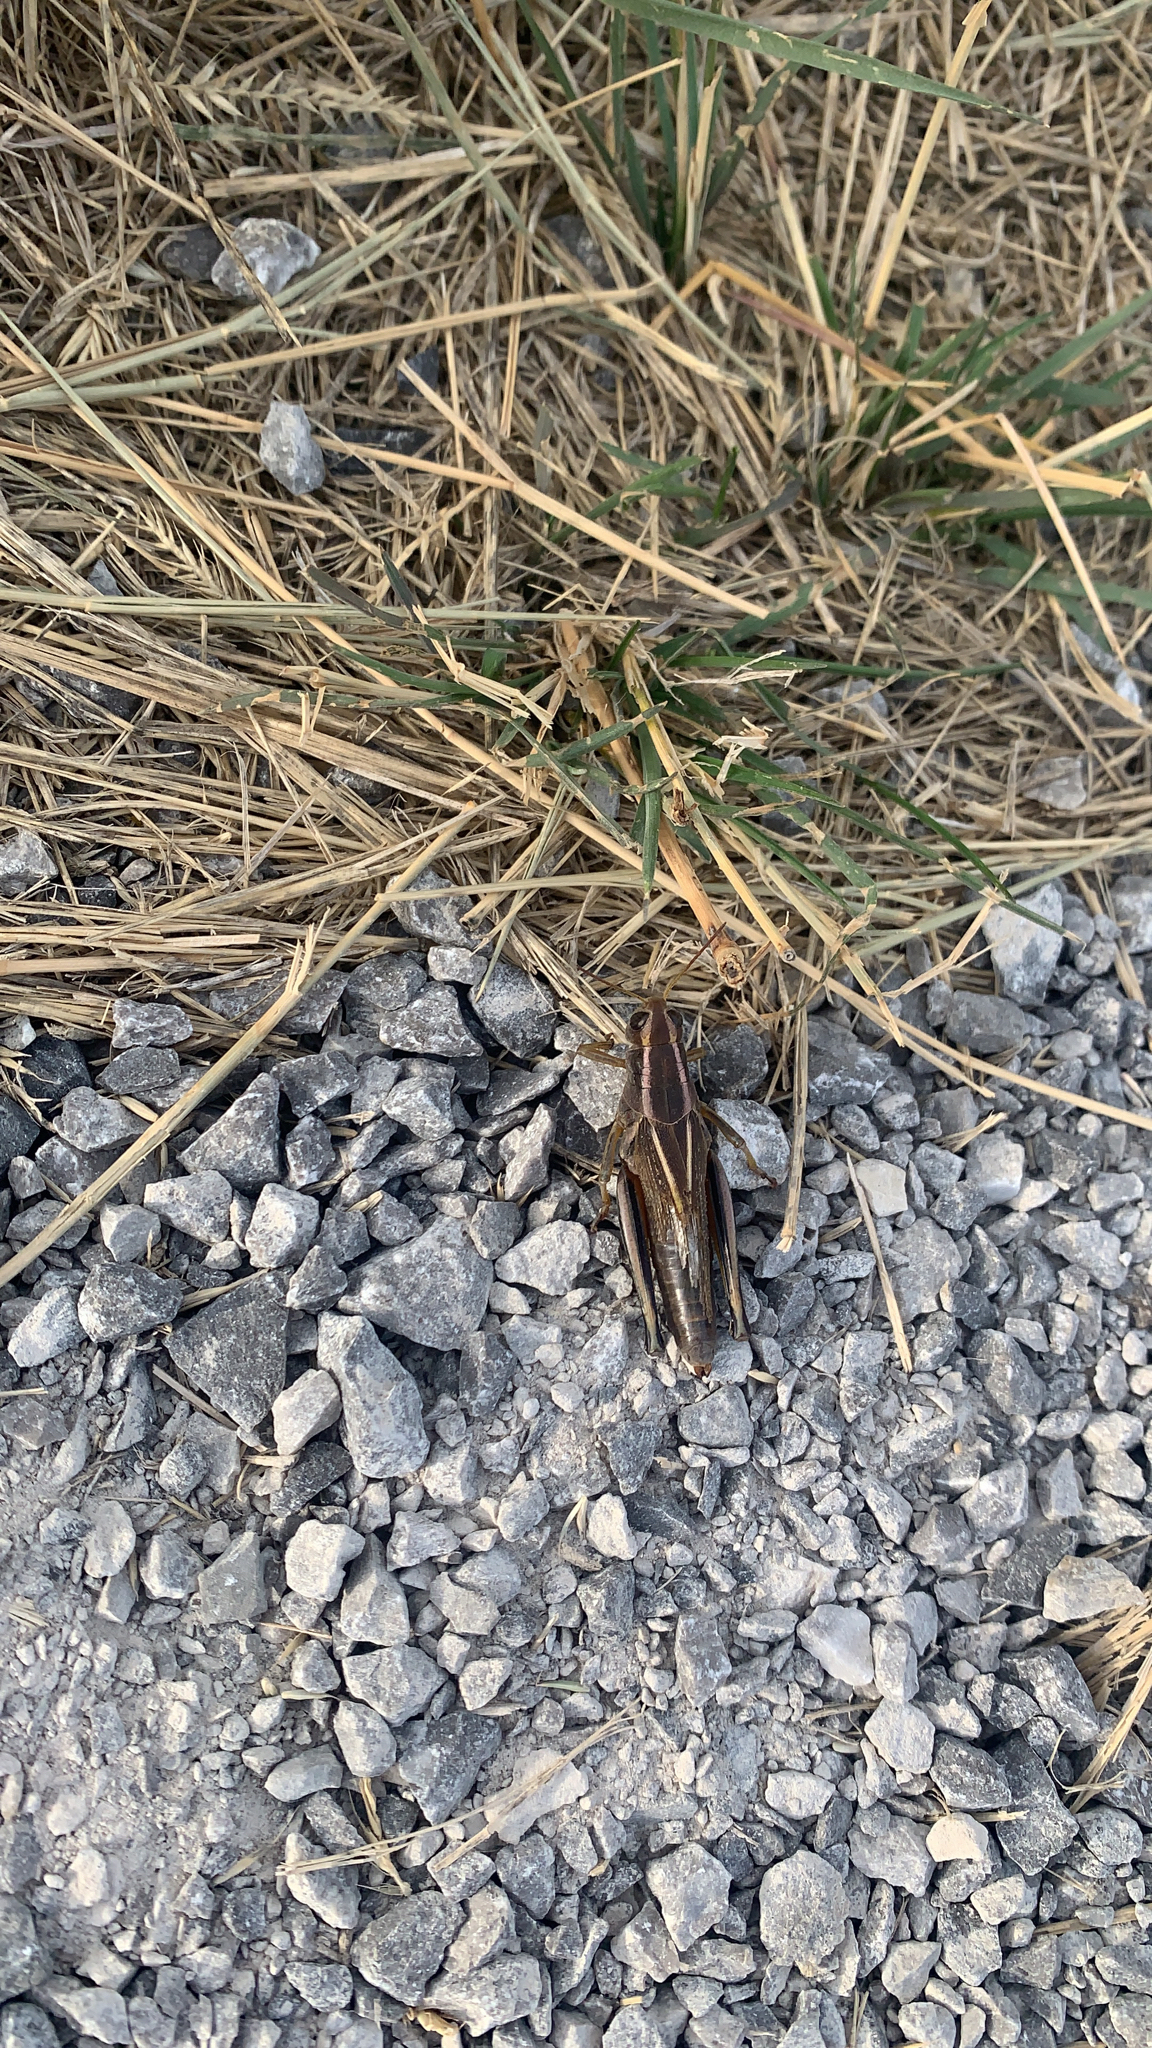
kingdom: Animalia
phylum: Arthropoda
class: Insecta
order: Orthoptera
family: Acrididae
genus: Melanoplus
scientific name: Melanoplus bivittatus
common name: Two-striped grasshopper
